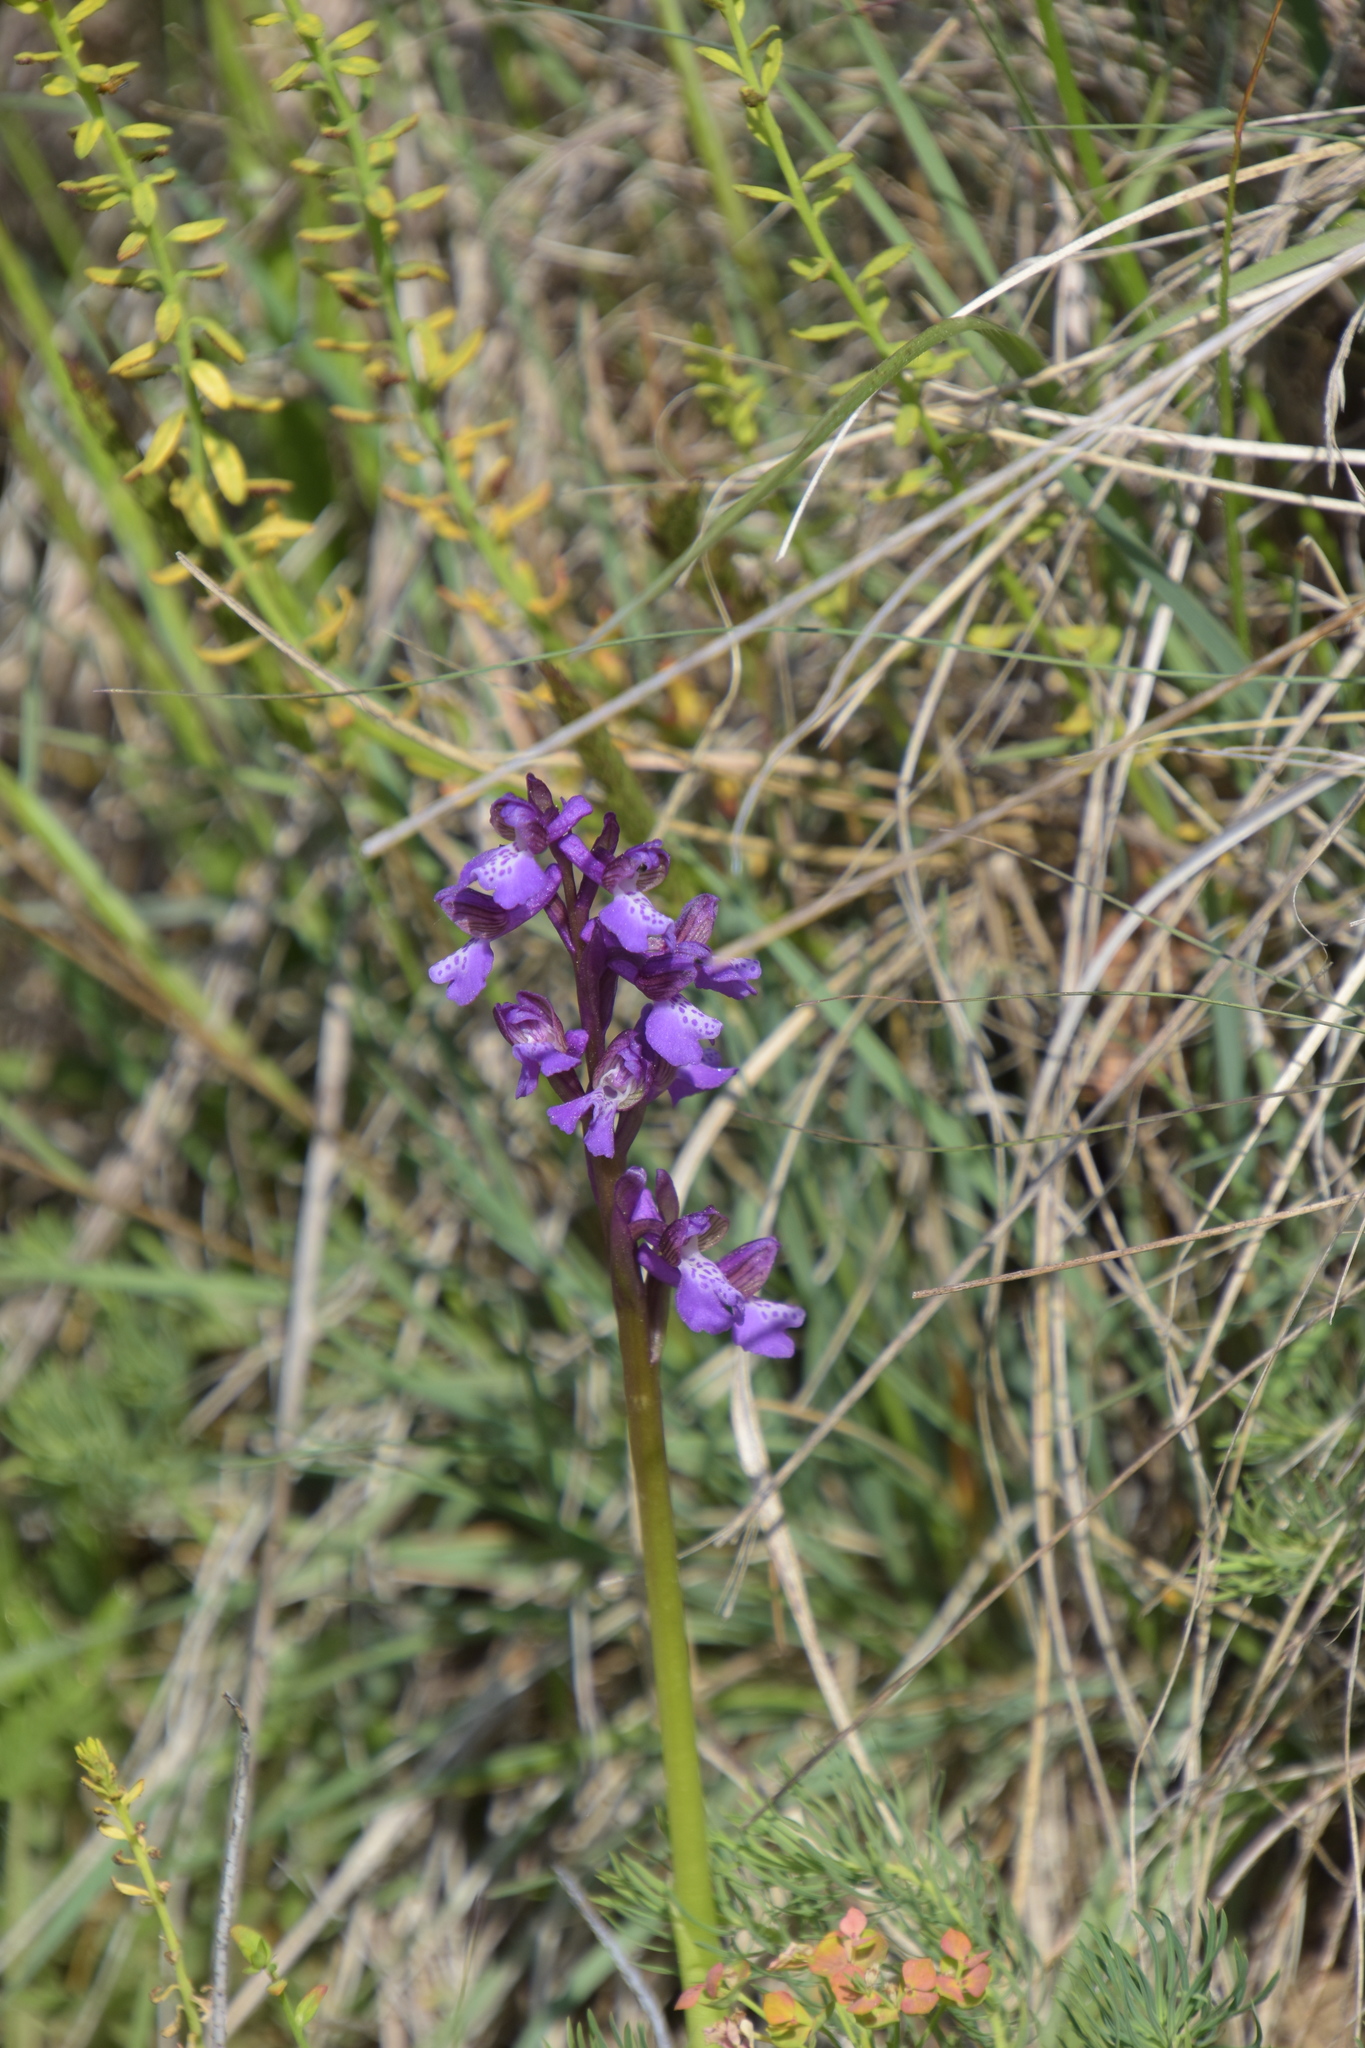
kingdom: Plantae
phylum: Tracheophyta
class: Liliopsida
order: Asparagales
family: Orchidaceae
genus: Anacamptis
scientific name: Anacamptis morio
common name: Green-winged orchid
